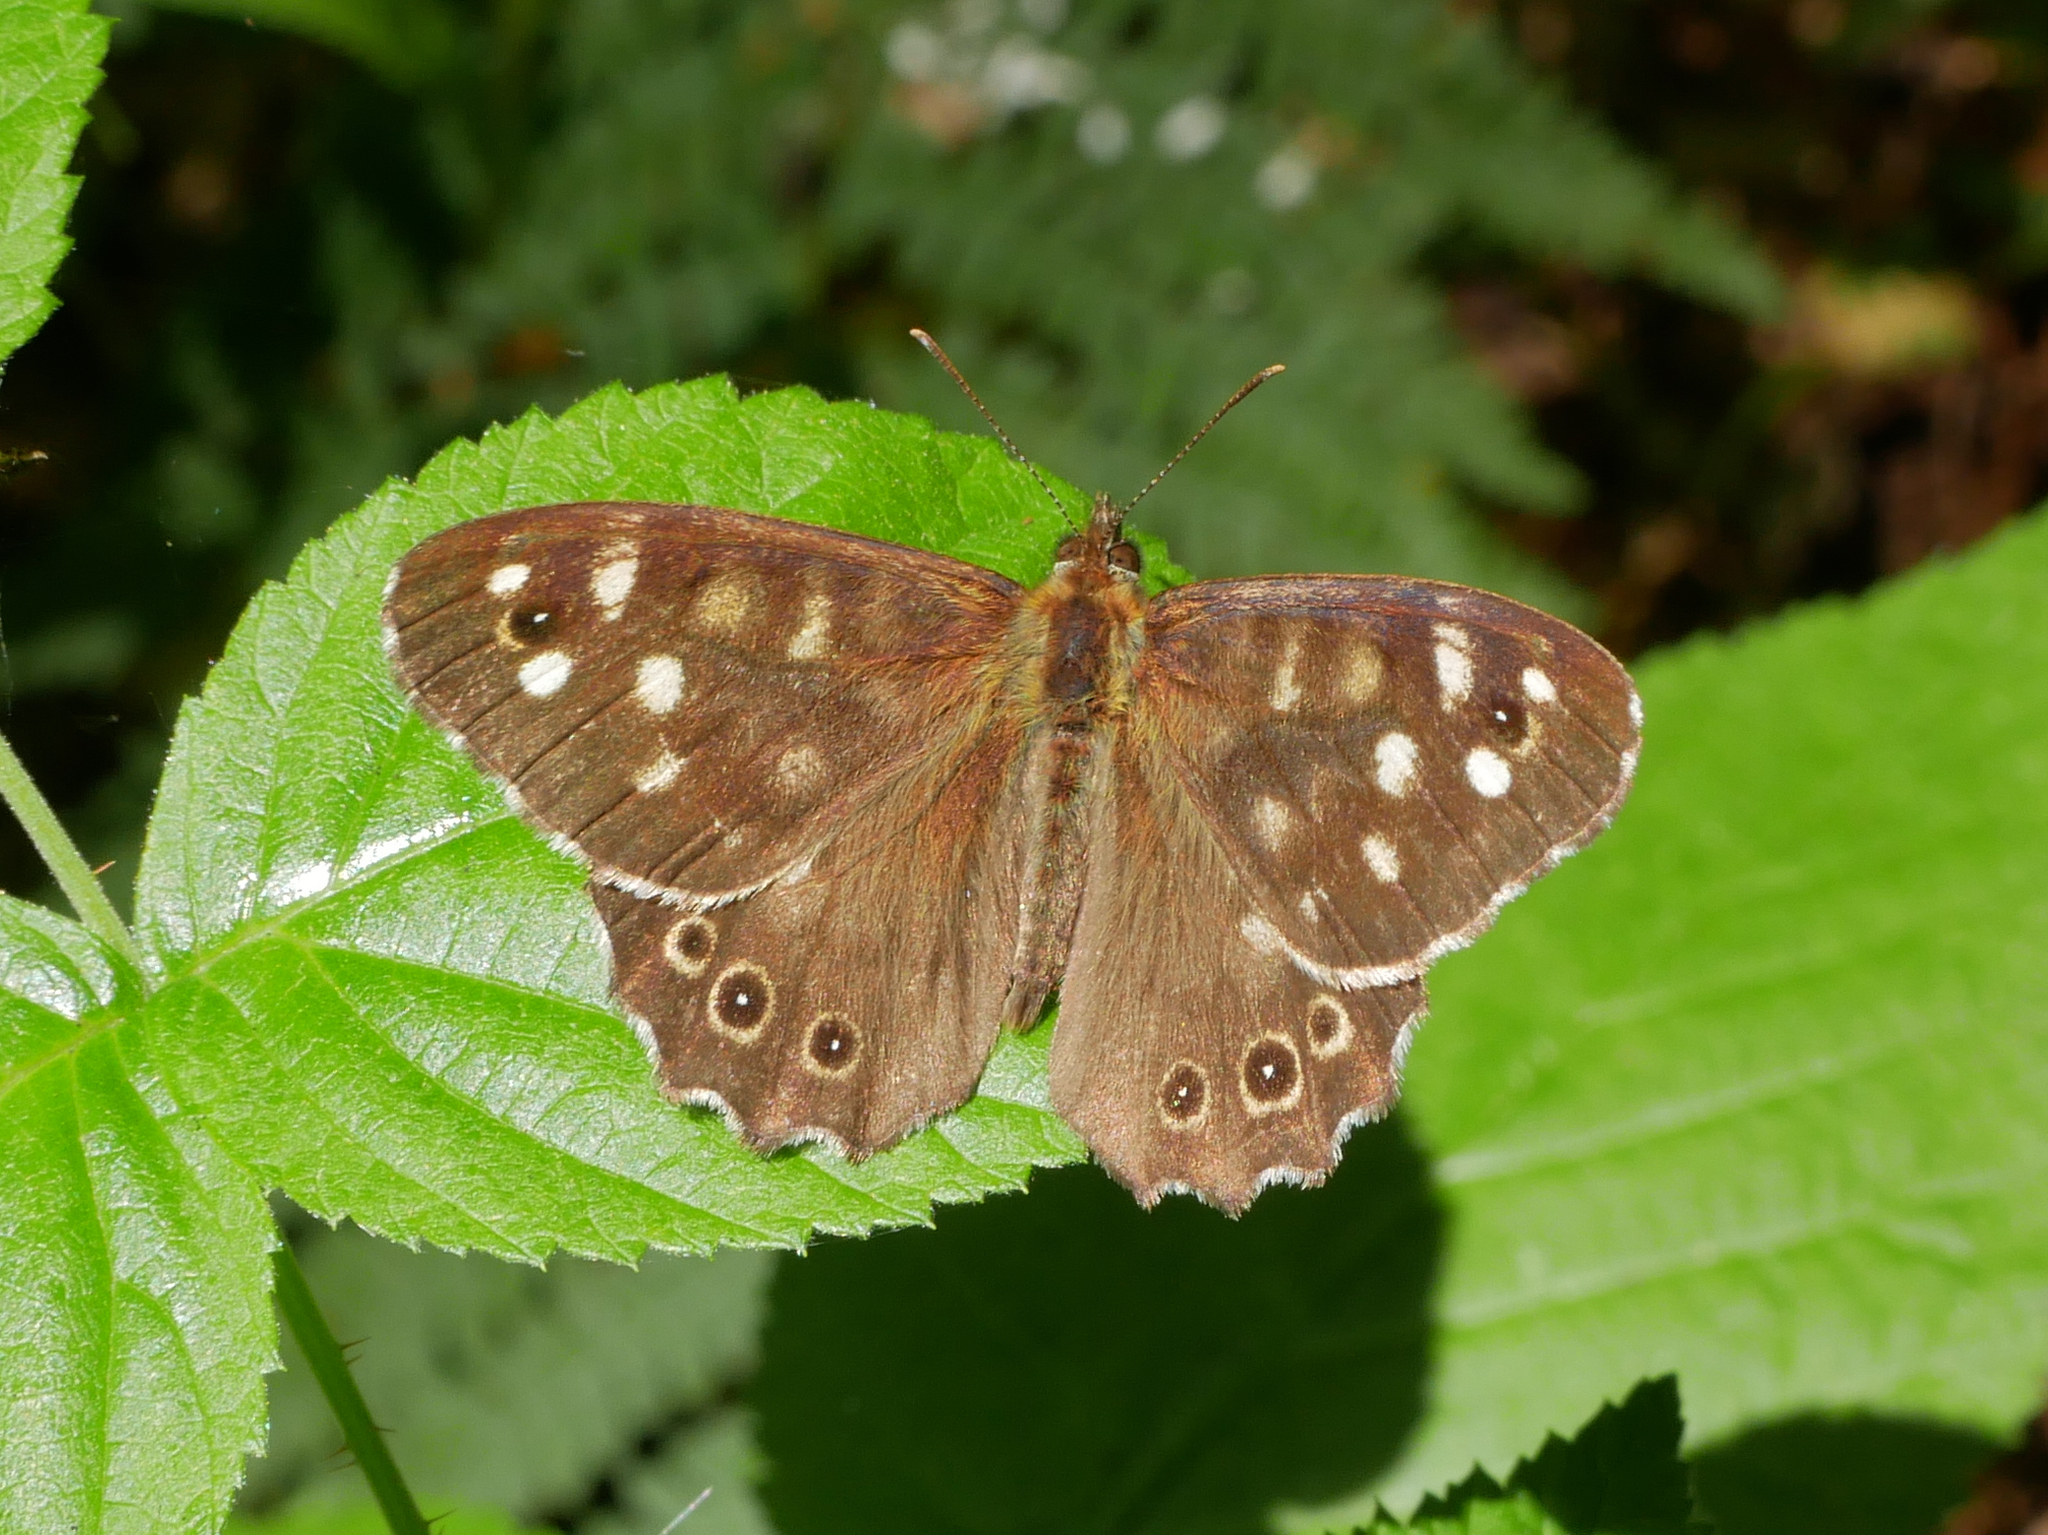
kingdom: Animalia
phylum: Arthropoda
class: Insecta
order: Lepidoptera
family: Nymphalidae
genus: Pararge
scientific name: Pararge aegeria
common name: Speckled wood
